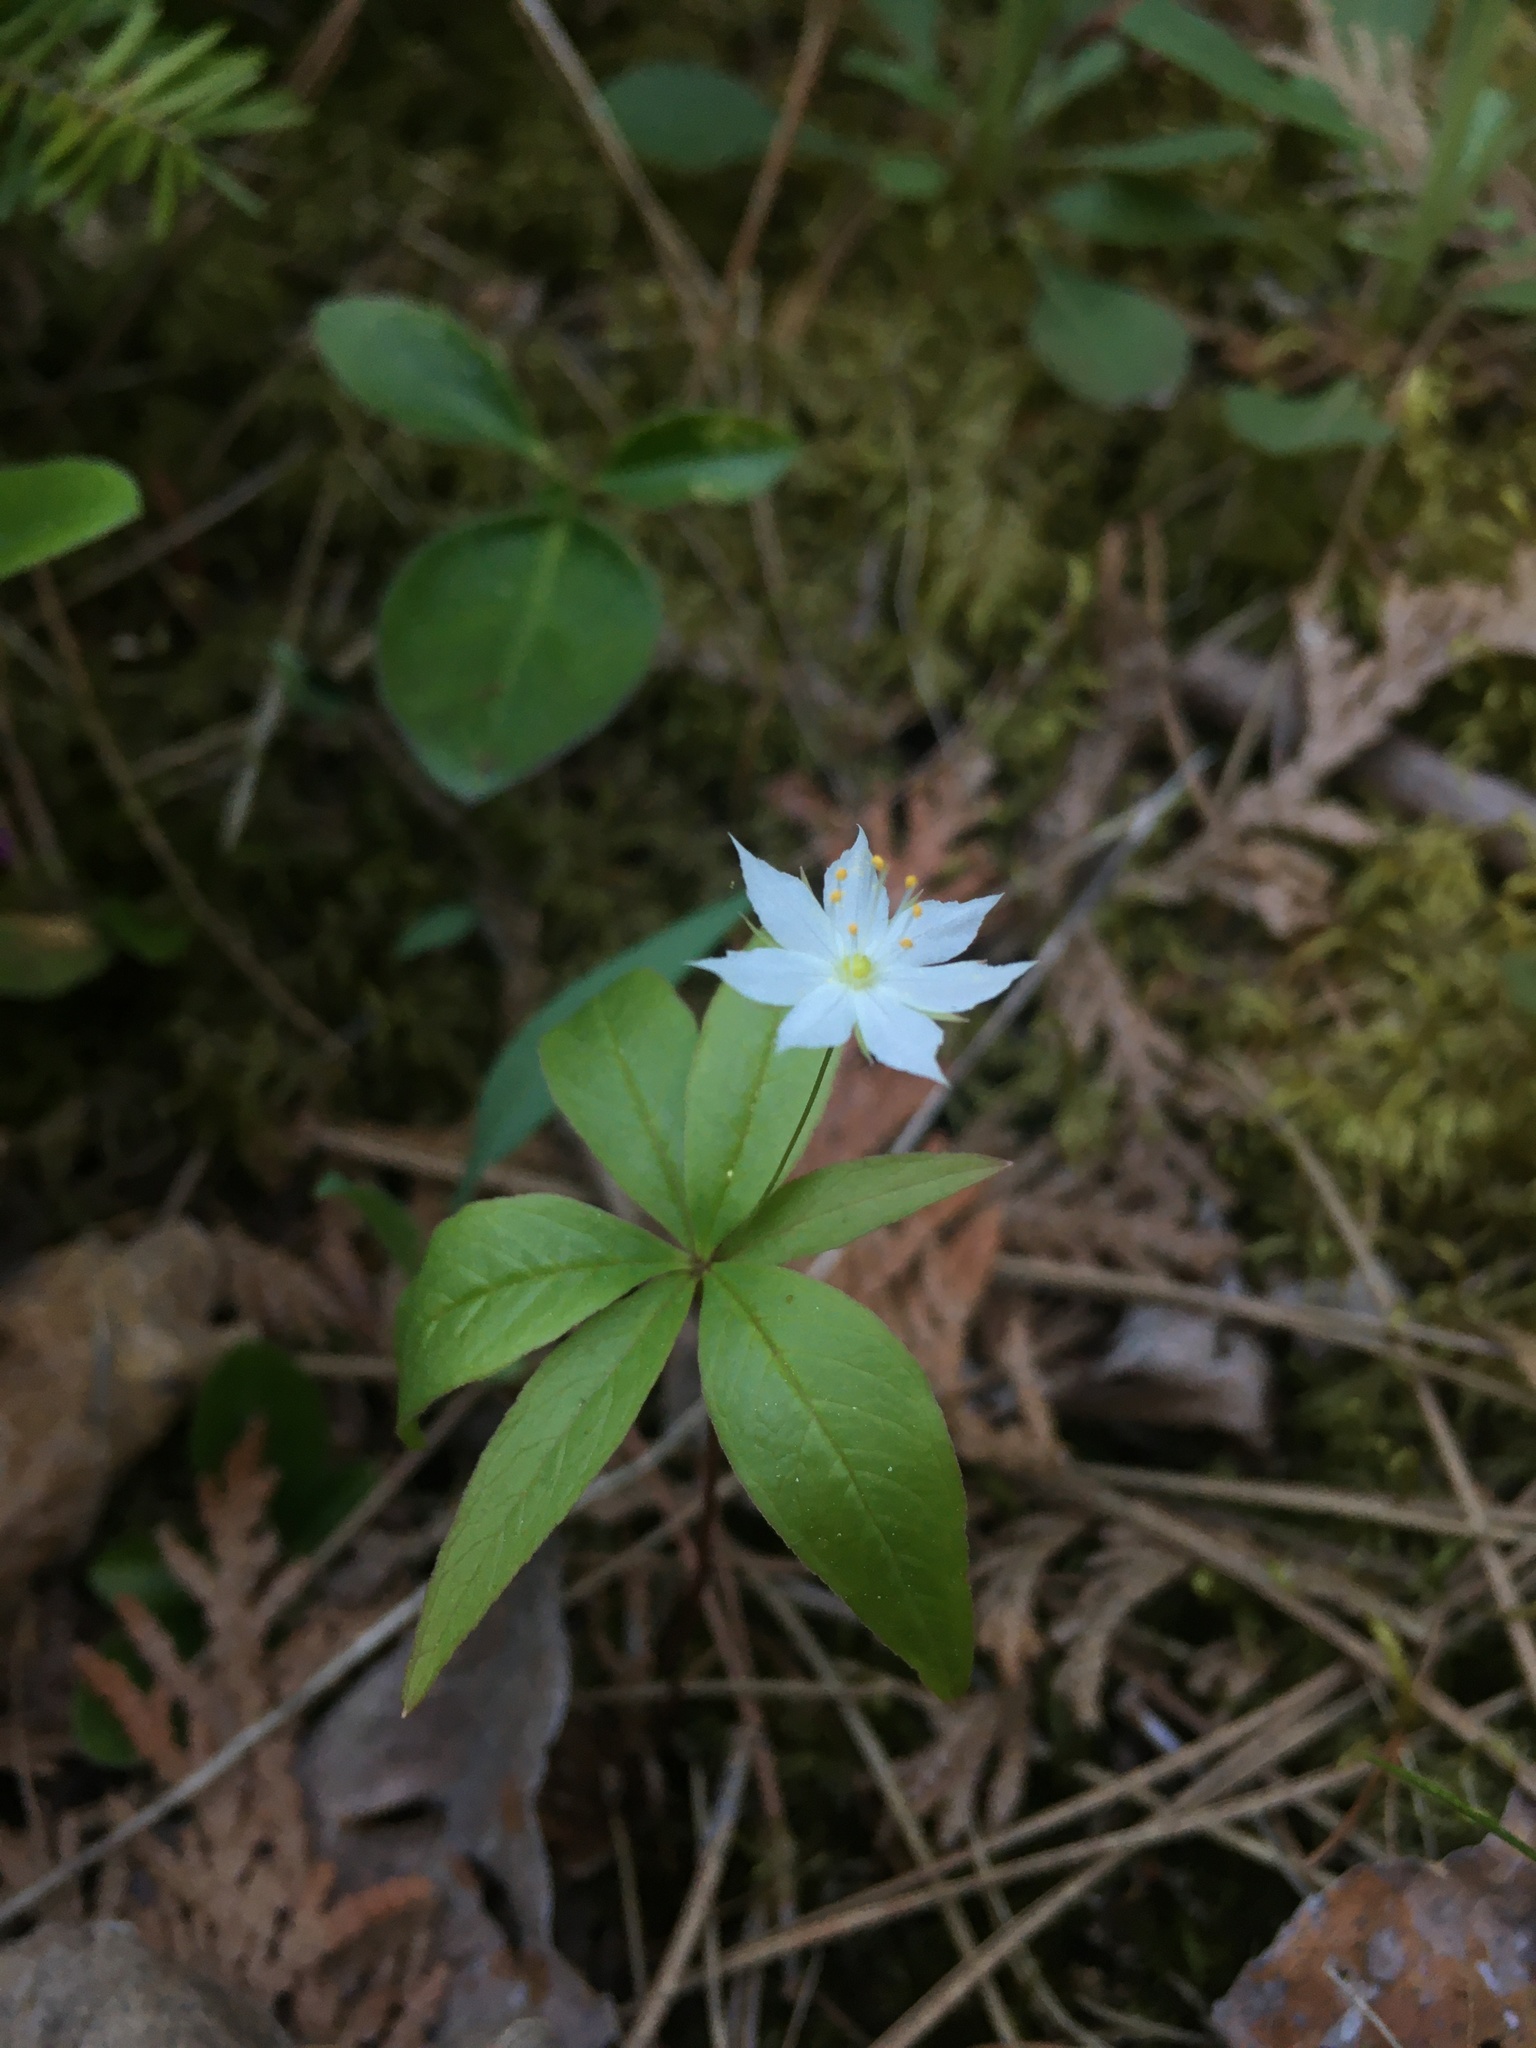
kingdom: Plantae
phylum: Tracheophyta
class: Magnoliopsida
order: Ericales
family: Primulaceae
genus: Lysimachia
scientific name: Lysimachia borealis
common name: American starflower
